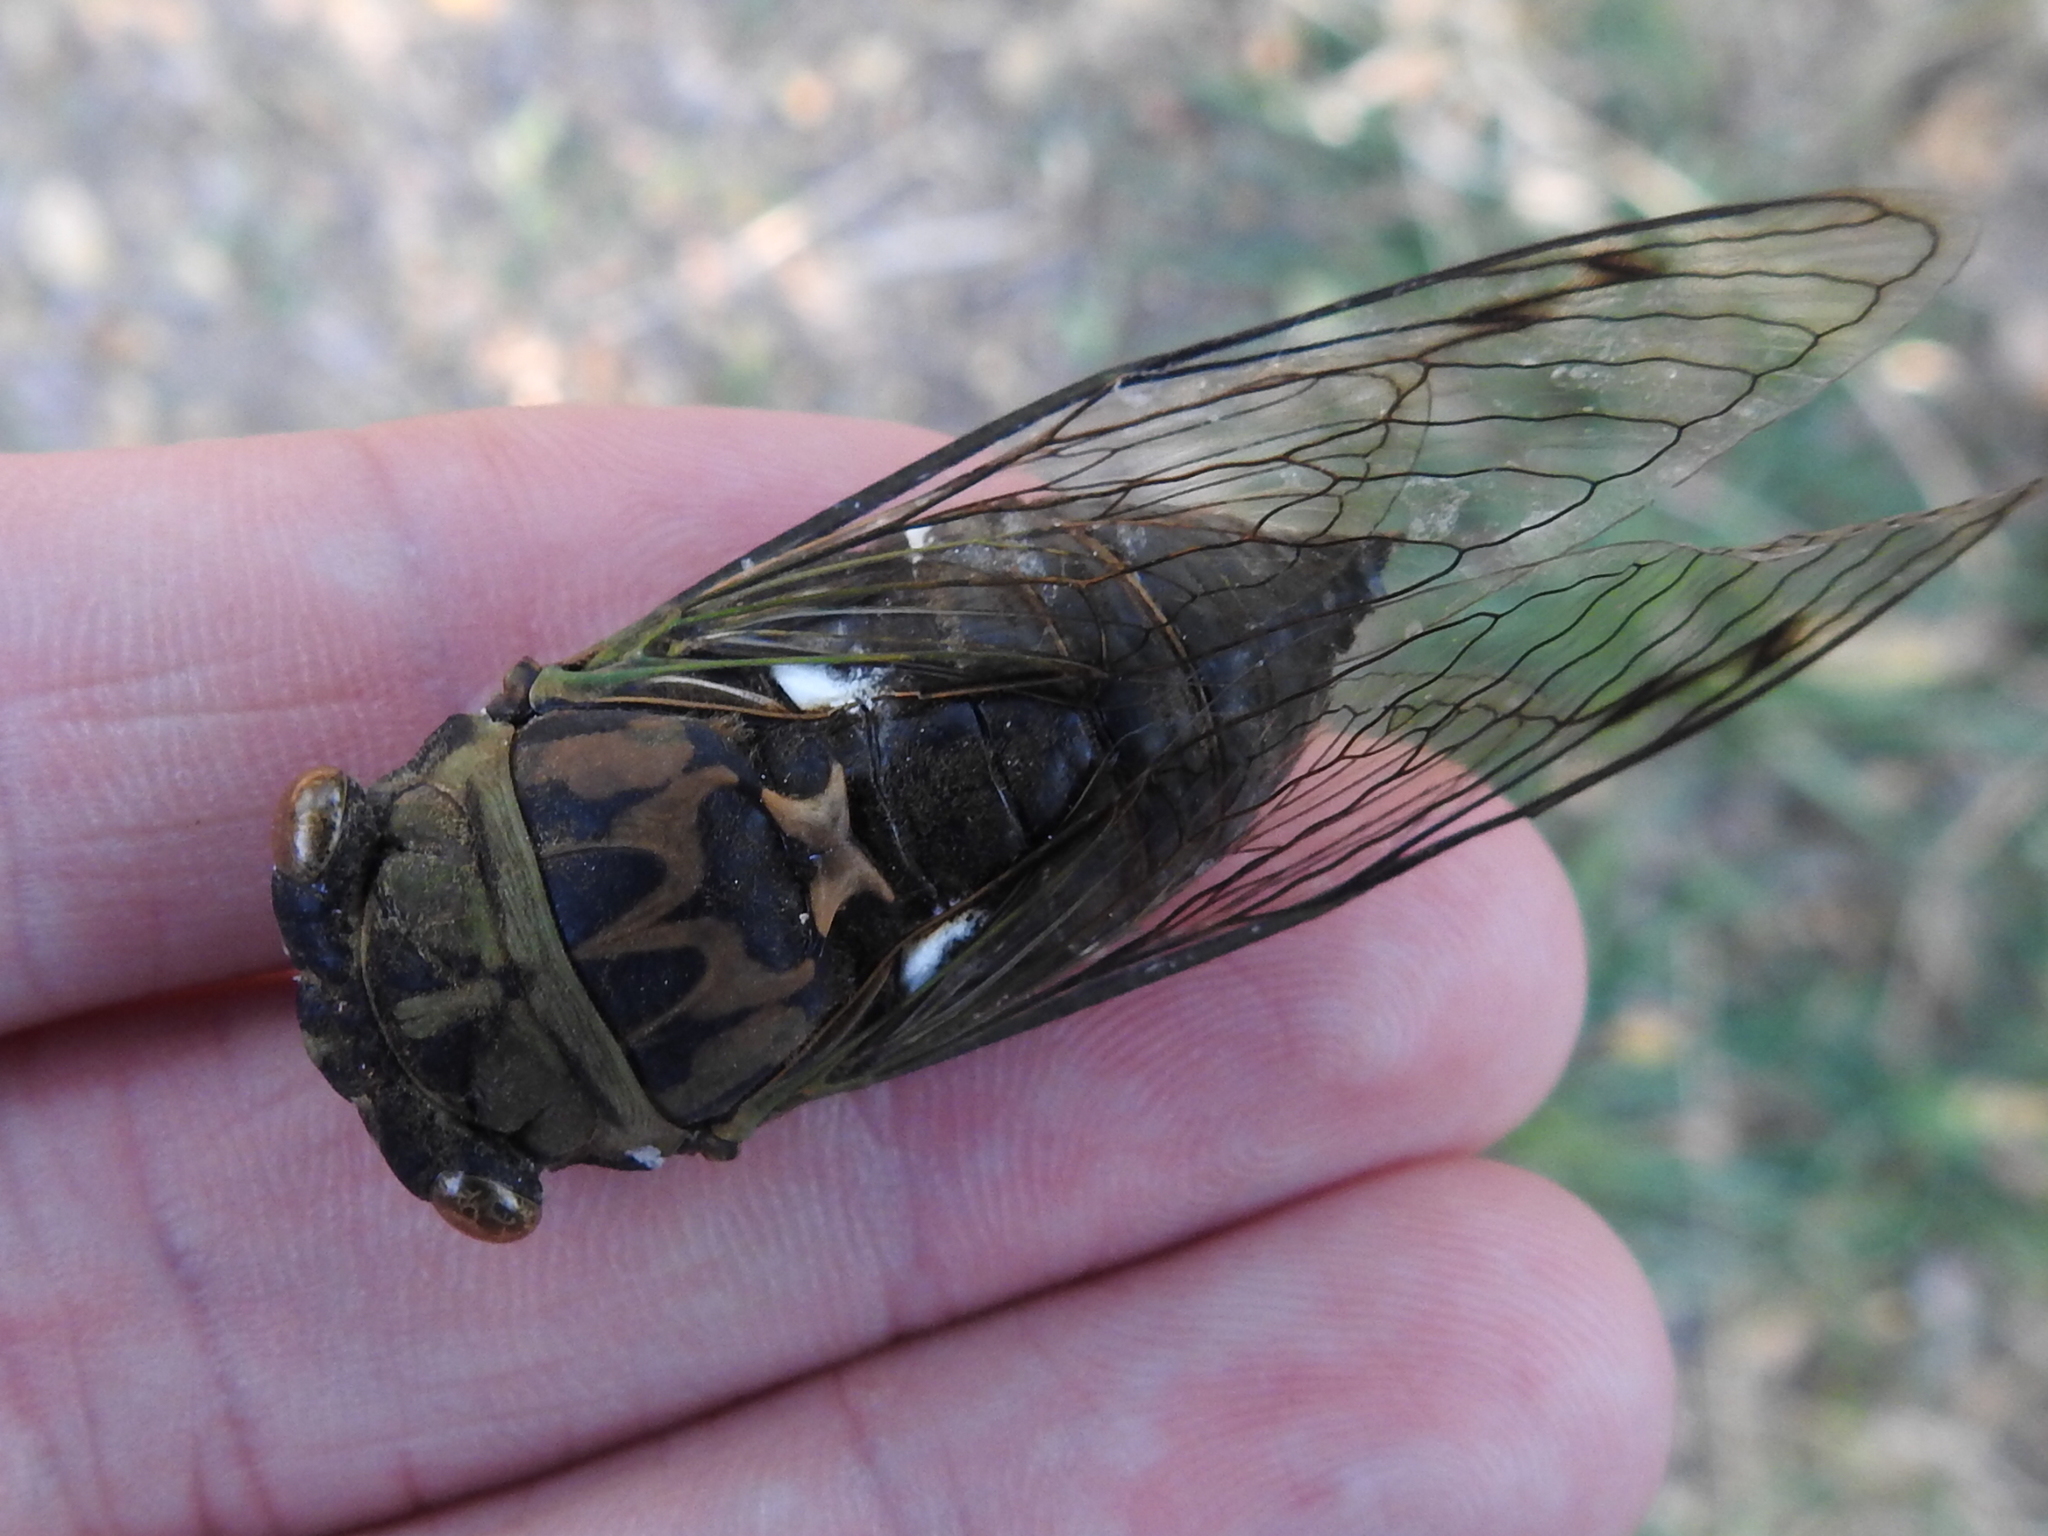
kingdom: Animalia
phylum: Arthropoda
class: Insecta
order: Hemiptera
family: Cicadidae
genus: Neotibicen
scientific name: Neotibicen pruinosus
